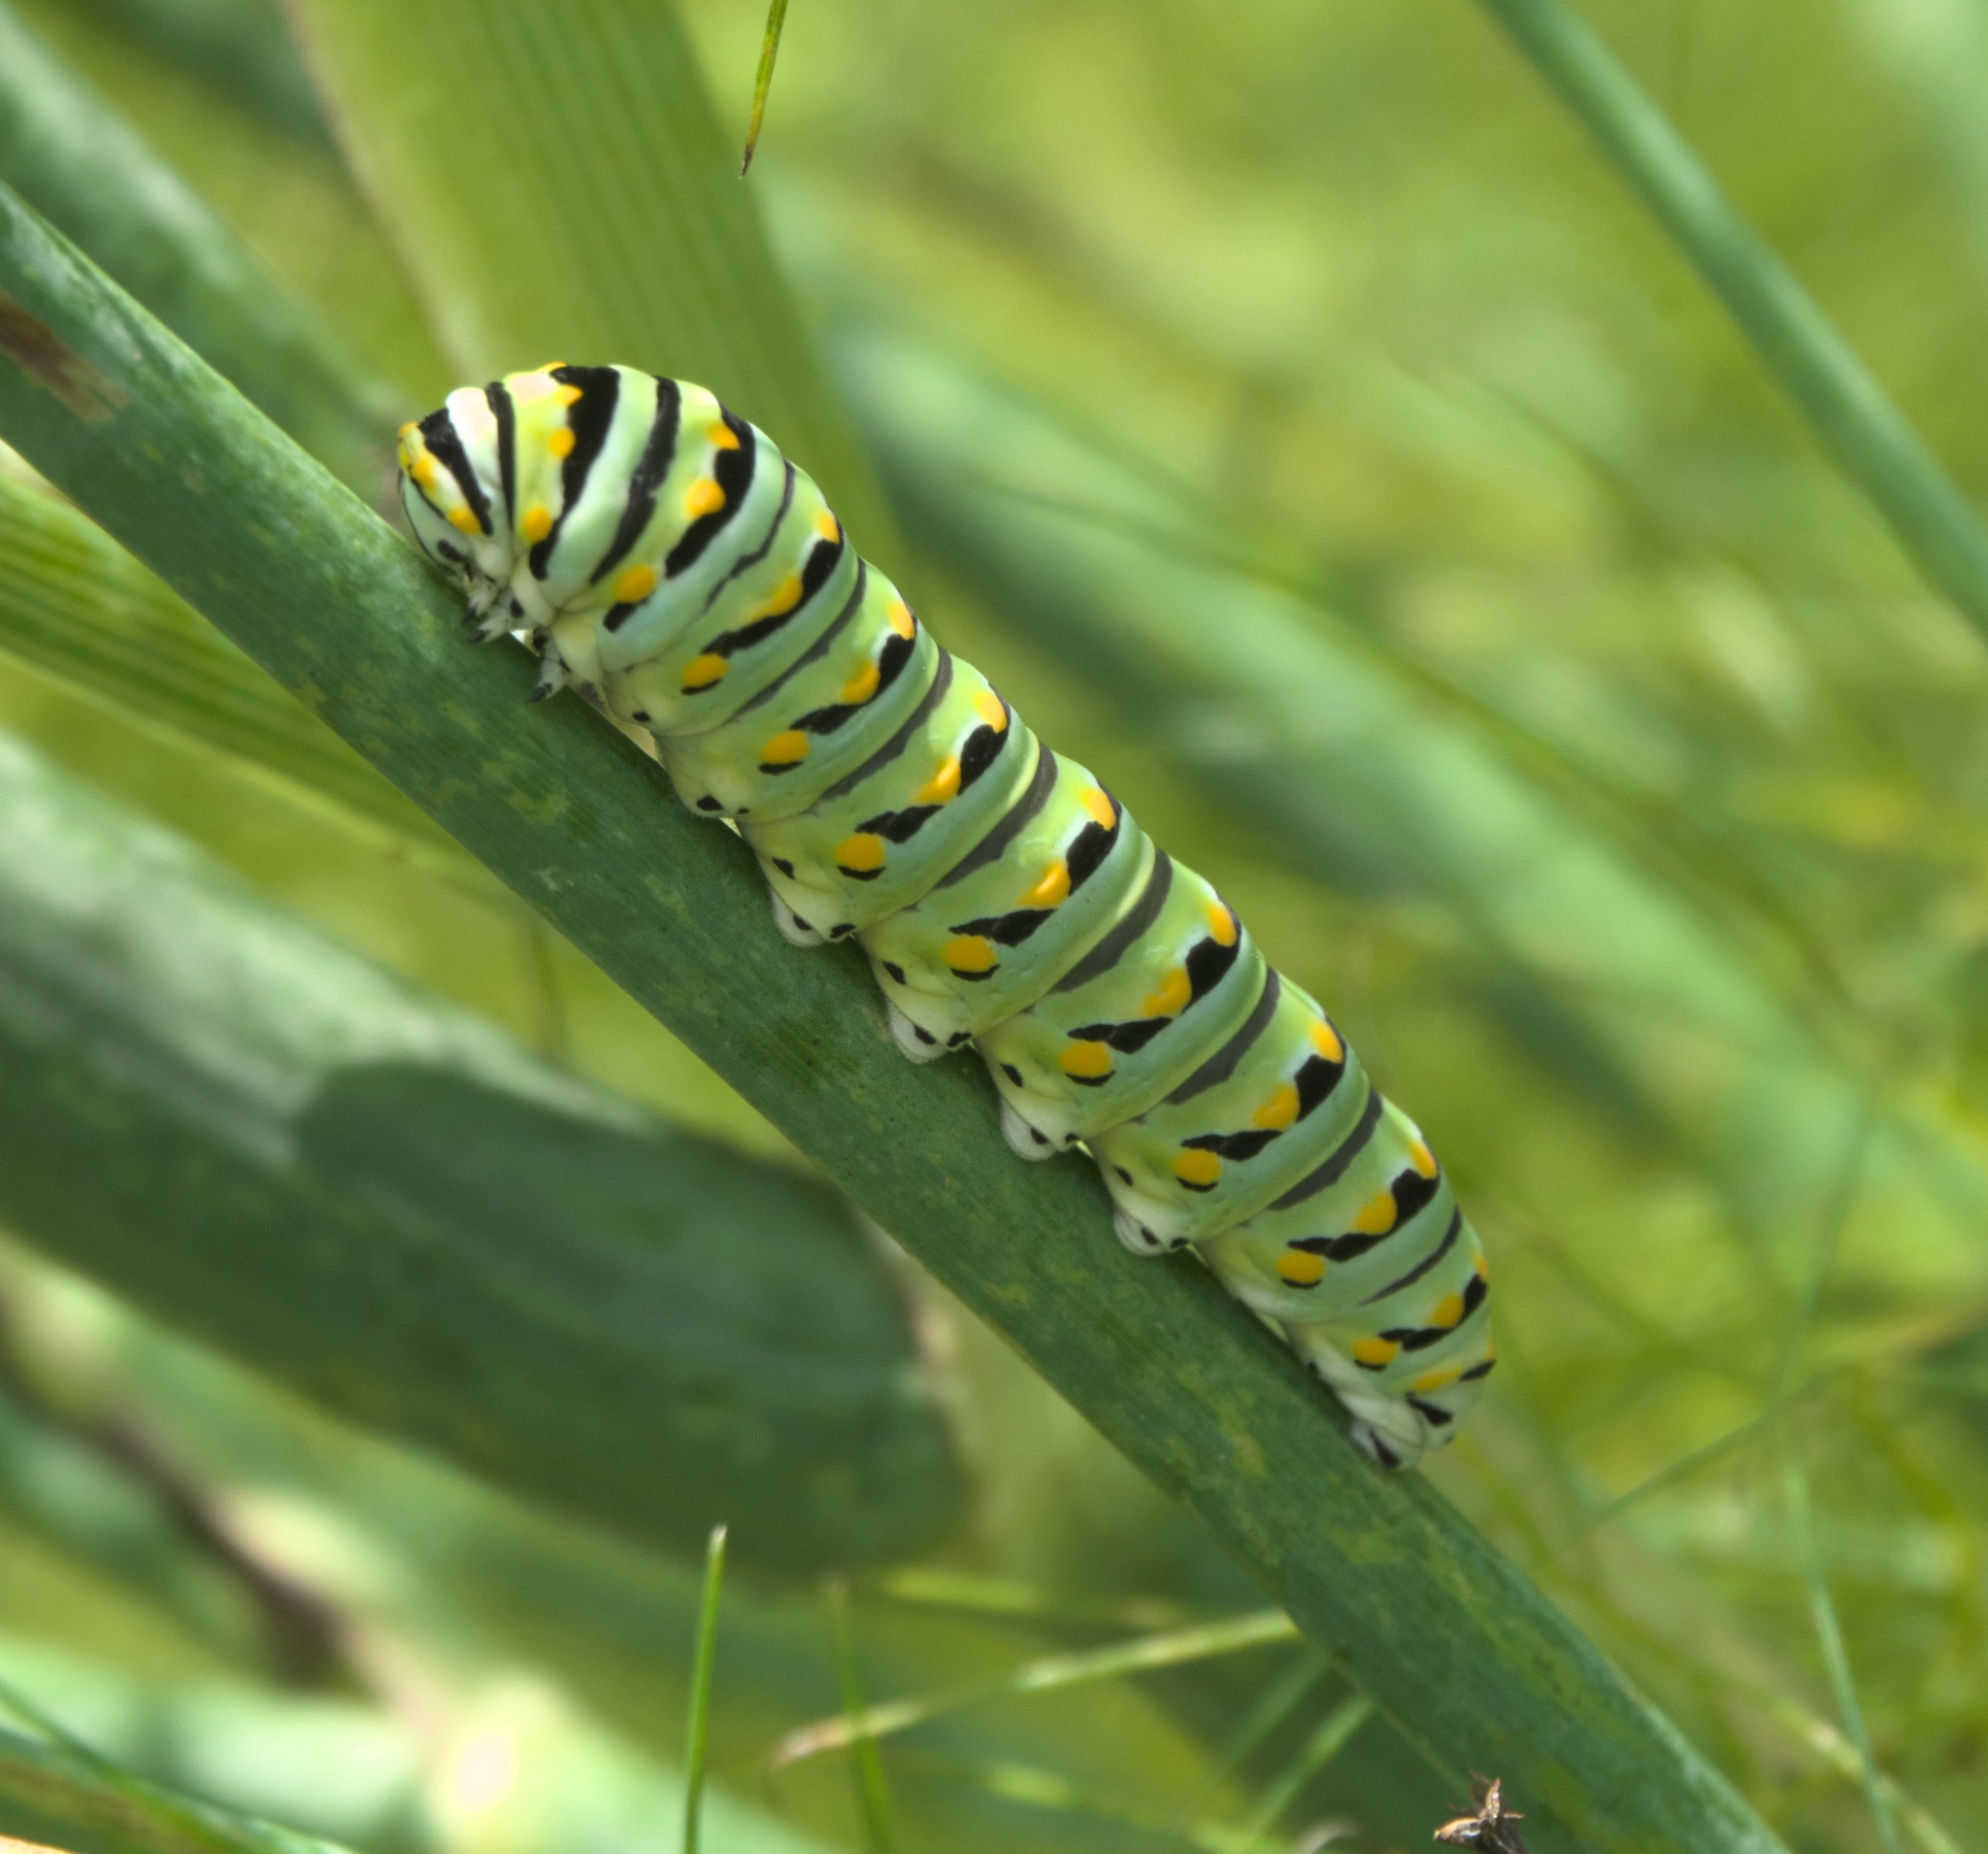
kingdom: Animalia
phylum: Arthropoda
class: Insecta
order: Lepidoptera
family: Papilionidae
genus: Papilio
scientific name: Papilio polyxenes
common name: Black swallowtail
